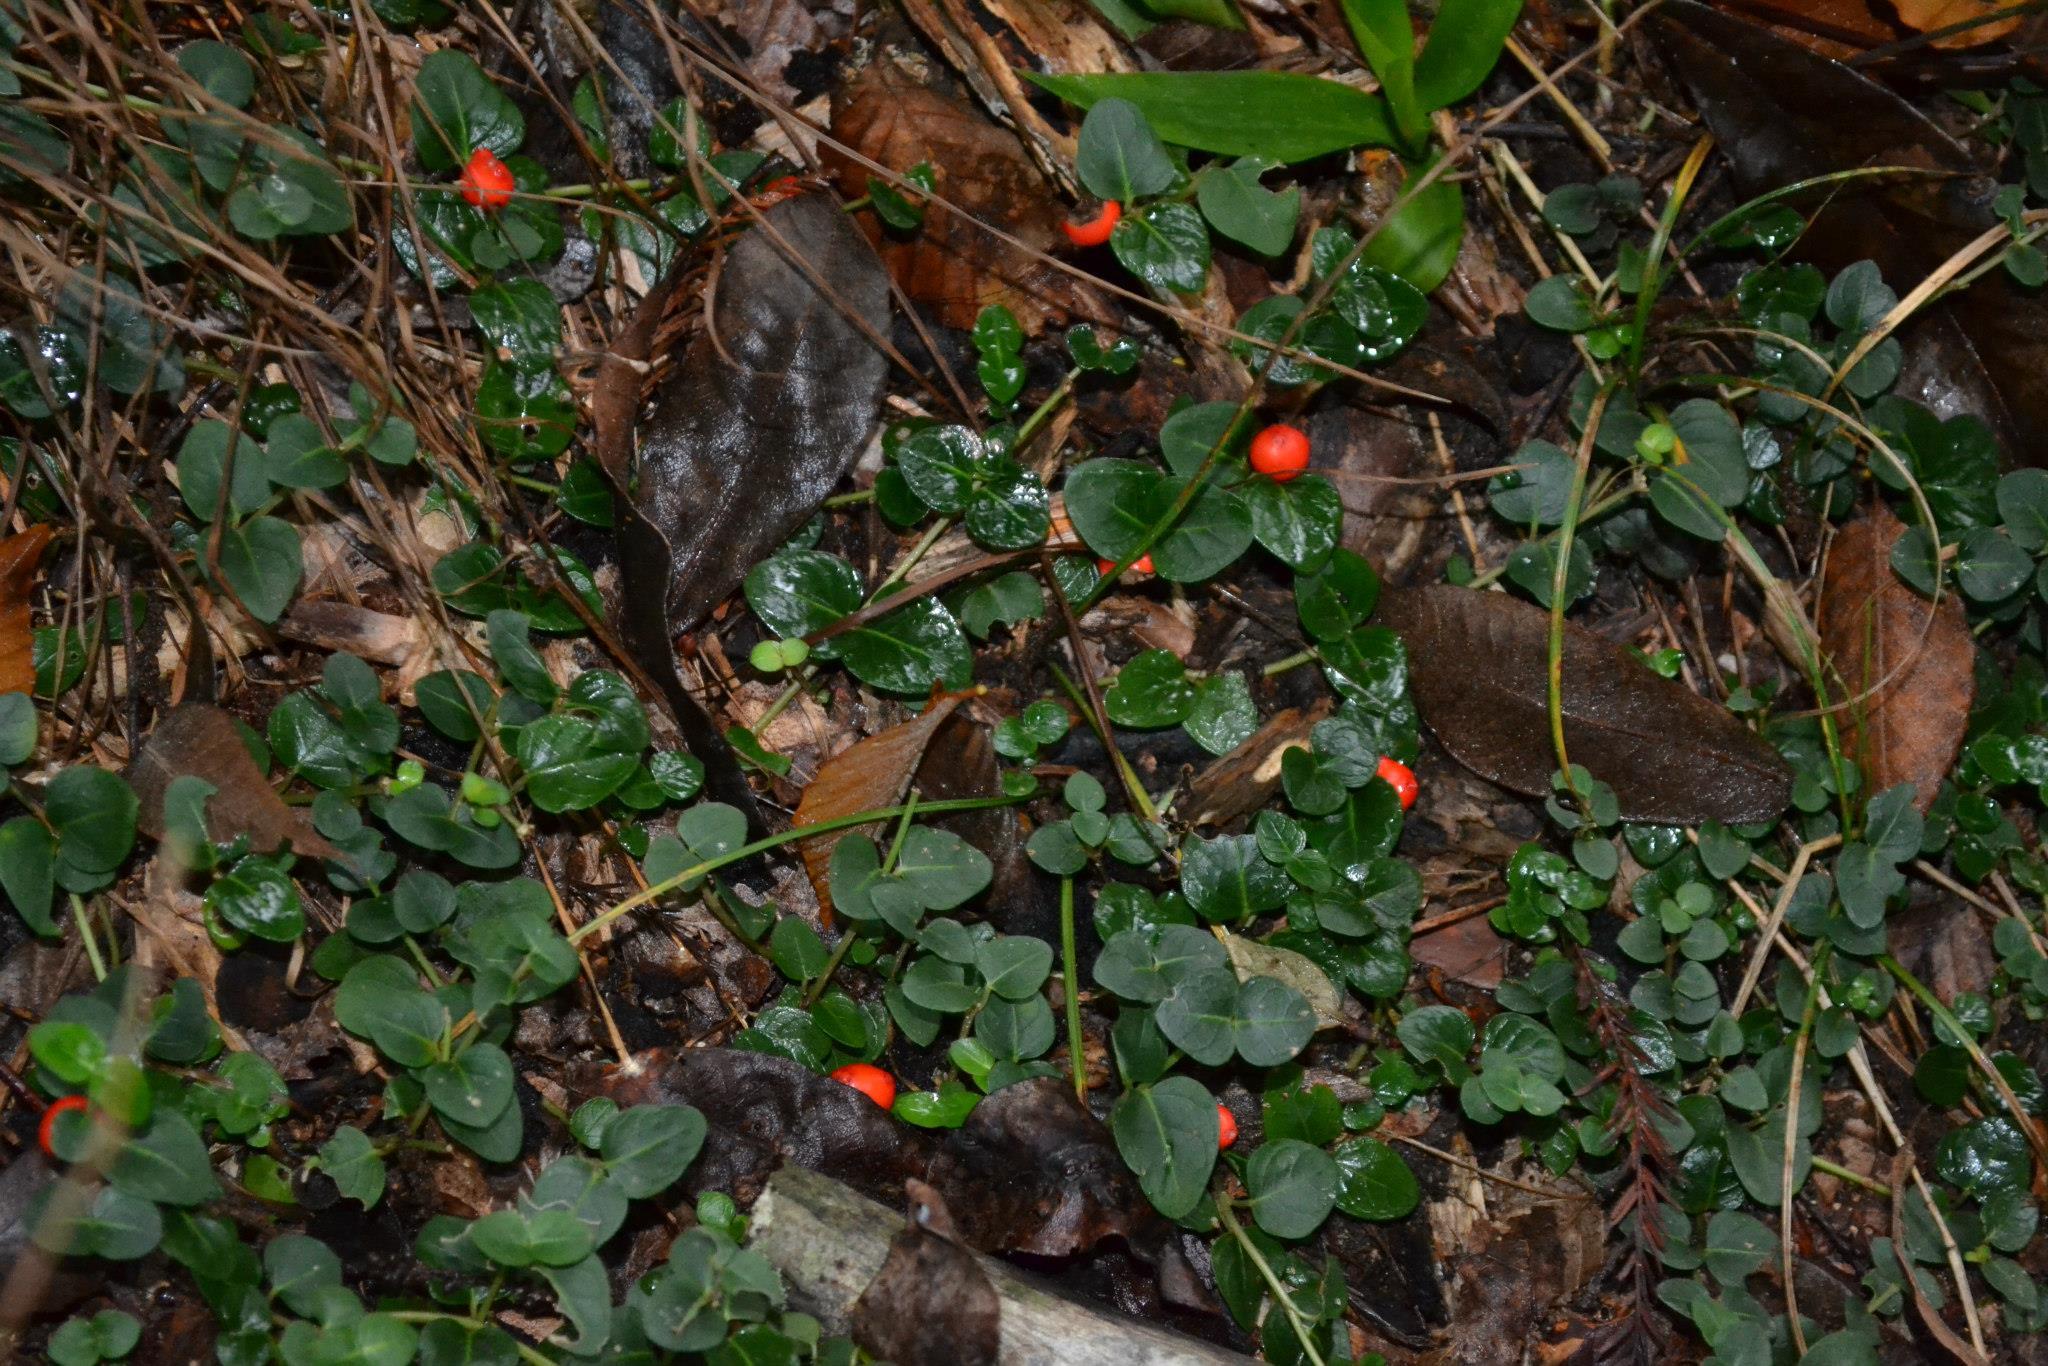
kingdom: Plantae
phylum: Tracheophyta
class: Magnoliopsida
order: Gentianales
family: Rubiaceae
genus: Mitchella
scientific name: Mitchella repens
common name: Partridge-berry
